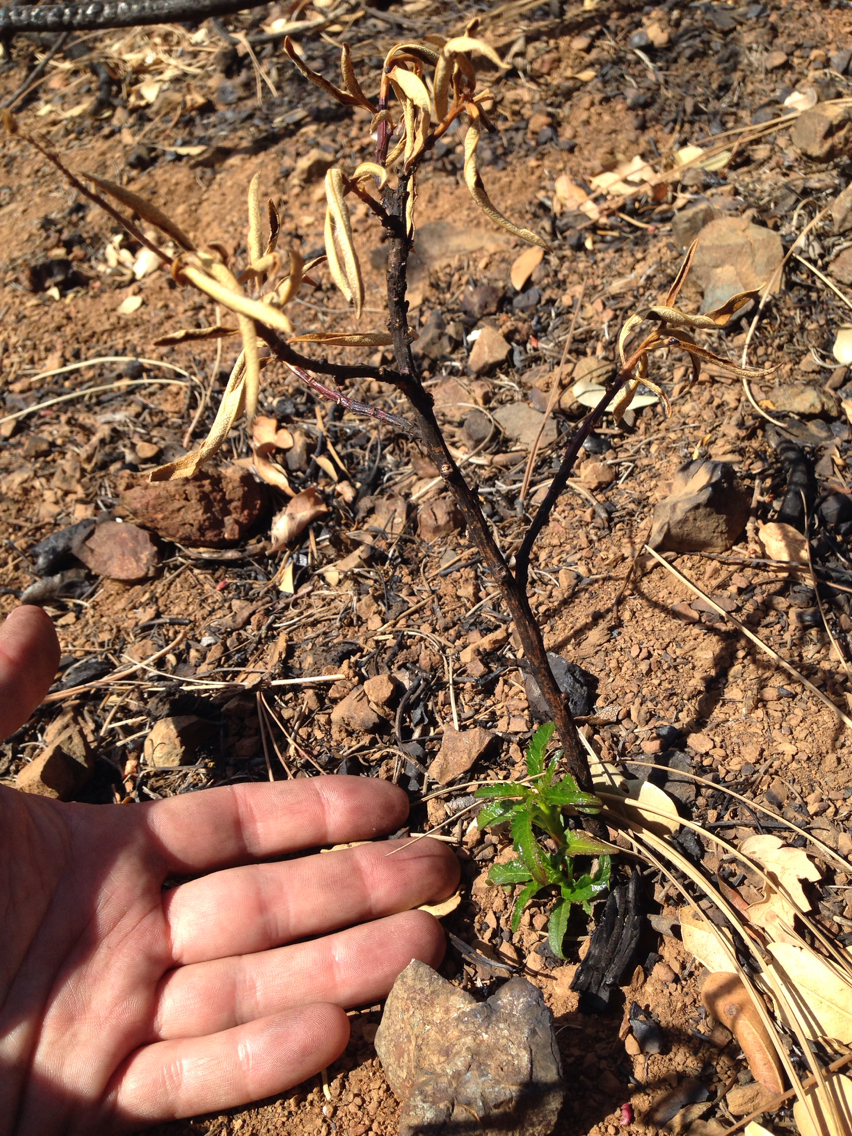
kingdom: Plantae
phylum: Tracheophyta
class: Magnoliopsida
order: Boraginales
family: Namaceae
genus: Eriodictyon
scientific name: Eriodictyon californicum
